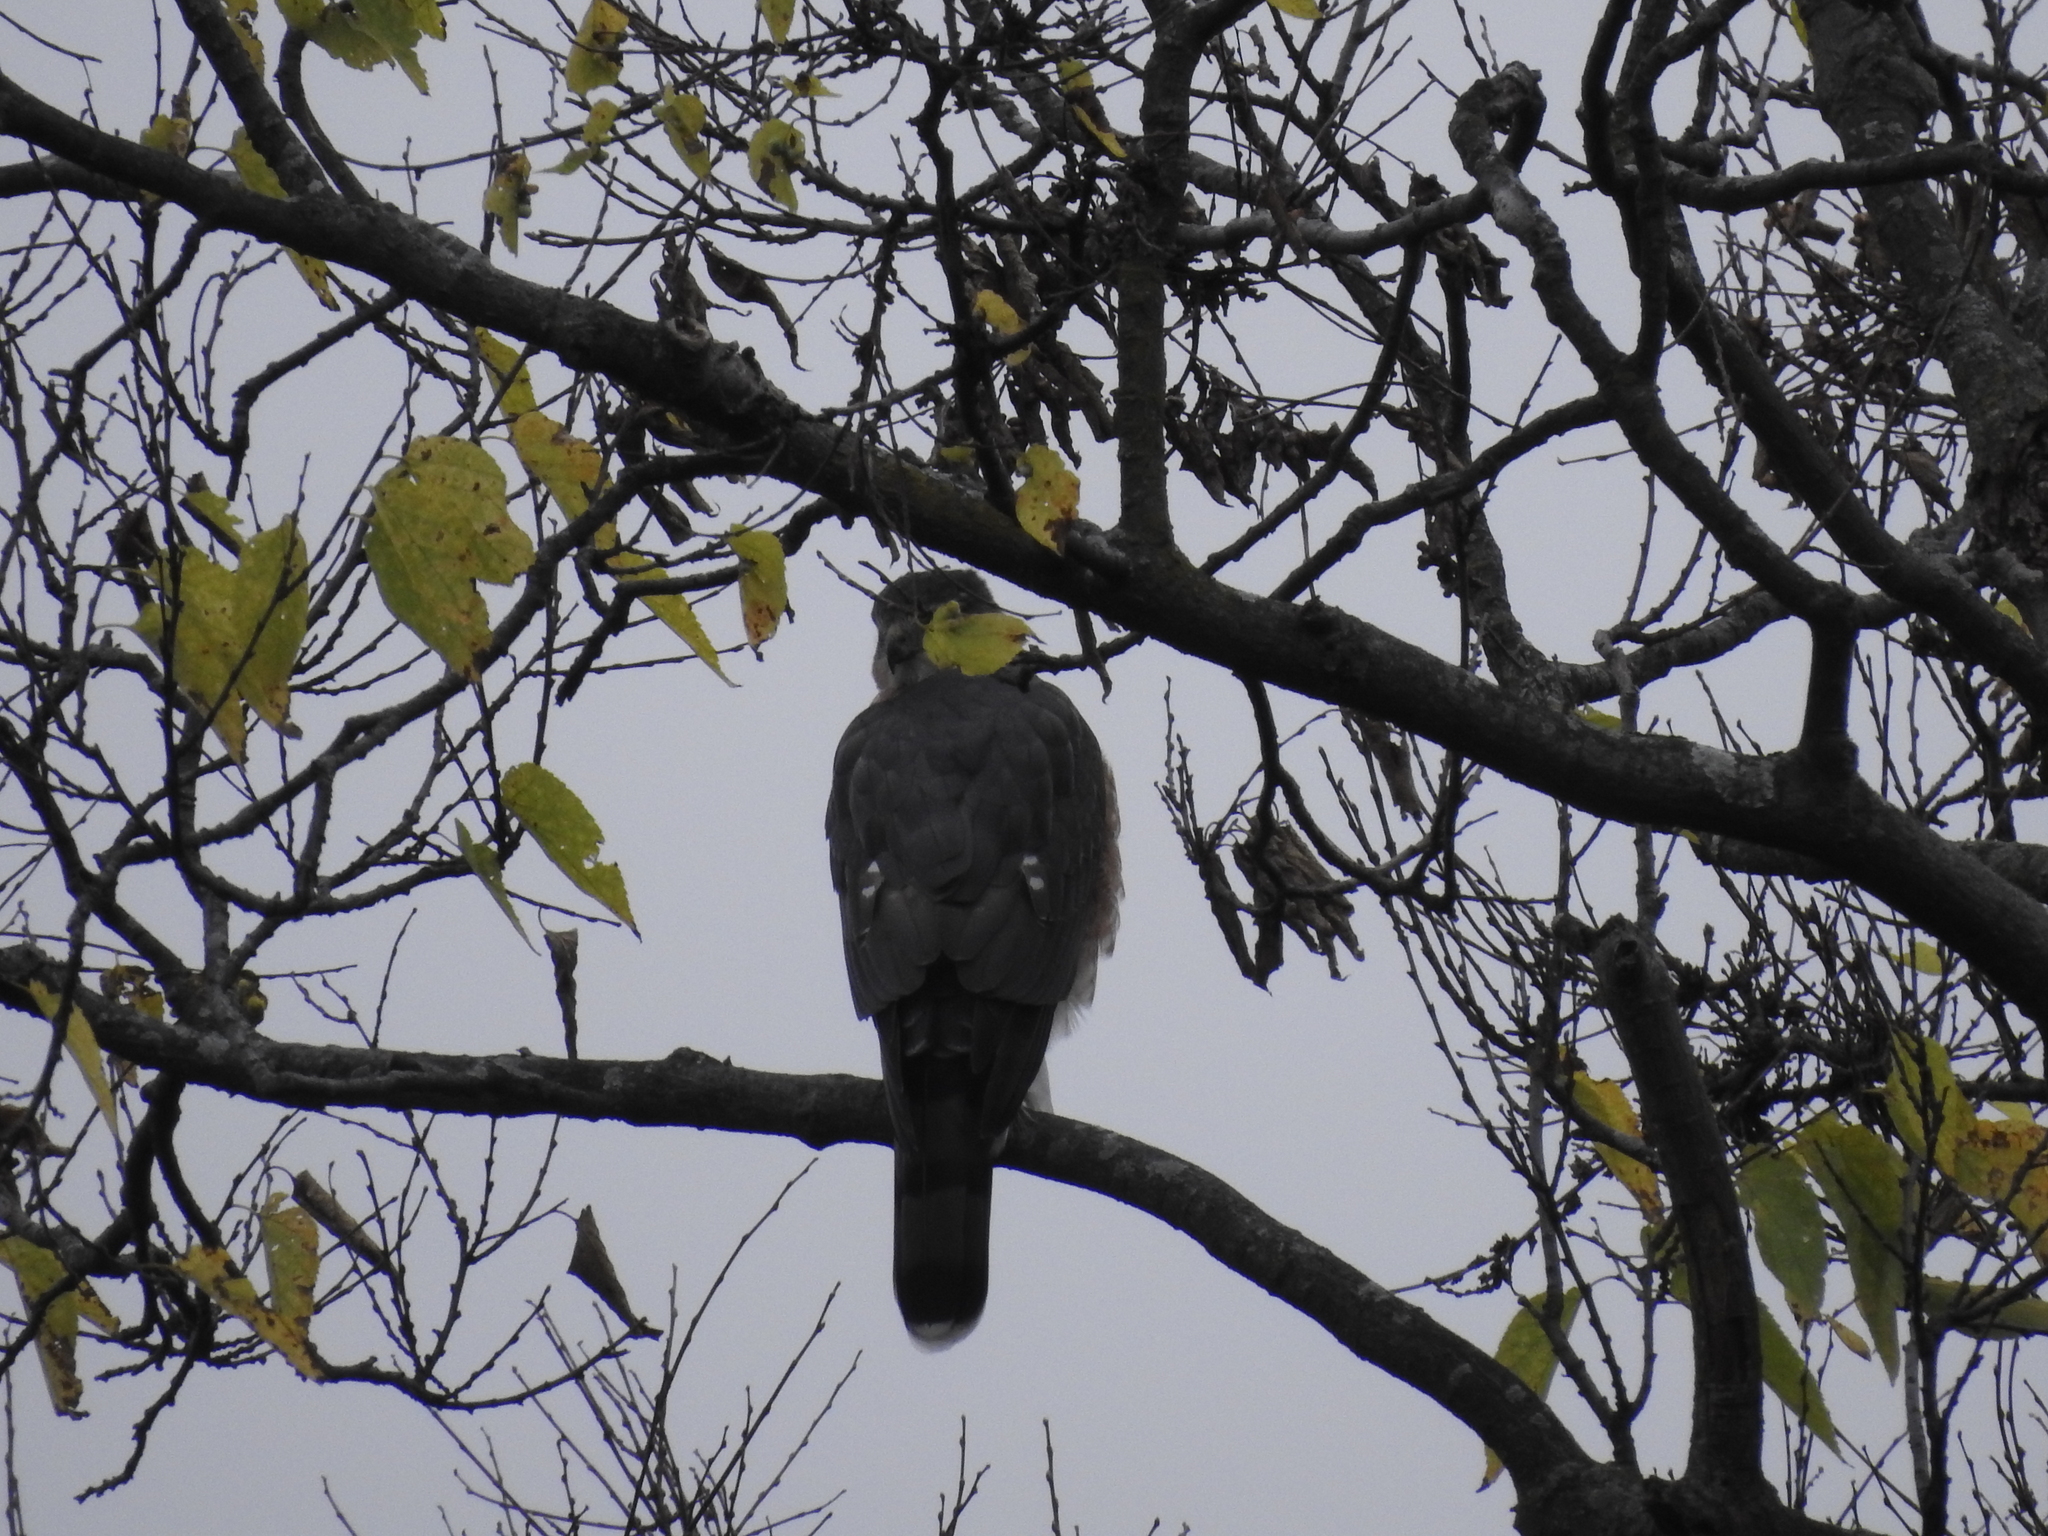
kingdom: Animalia
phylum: Chordata
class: Aves
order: Accipitriformes
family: Accipitridae
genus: Accipiter
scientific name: Accipiter cooperii
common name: Cooper's hawk
